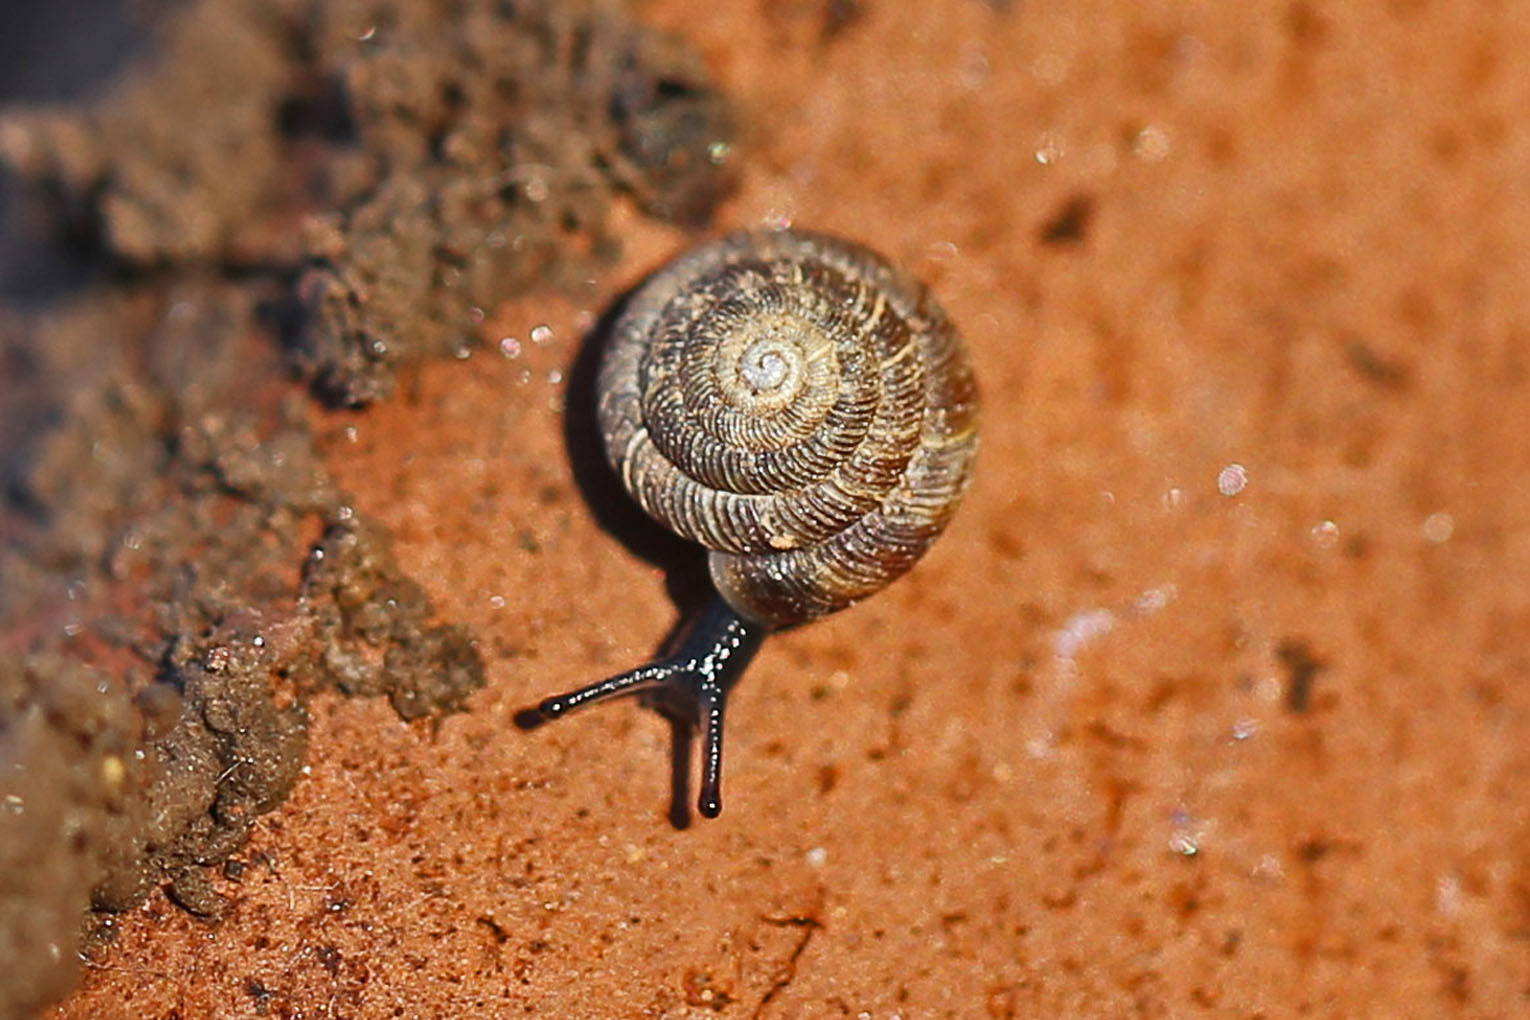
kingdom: Animalia
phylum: Mollusca
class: Gastropoda
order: Stylommatophora
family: Discidae
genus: Discus
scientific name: Discus rotundatus
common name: Rounded snail
